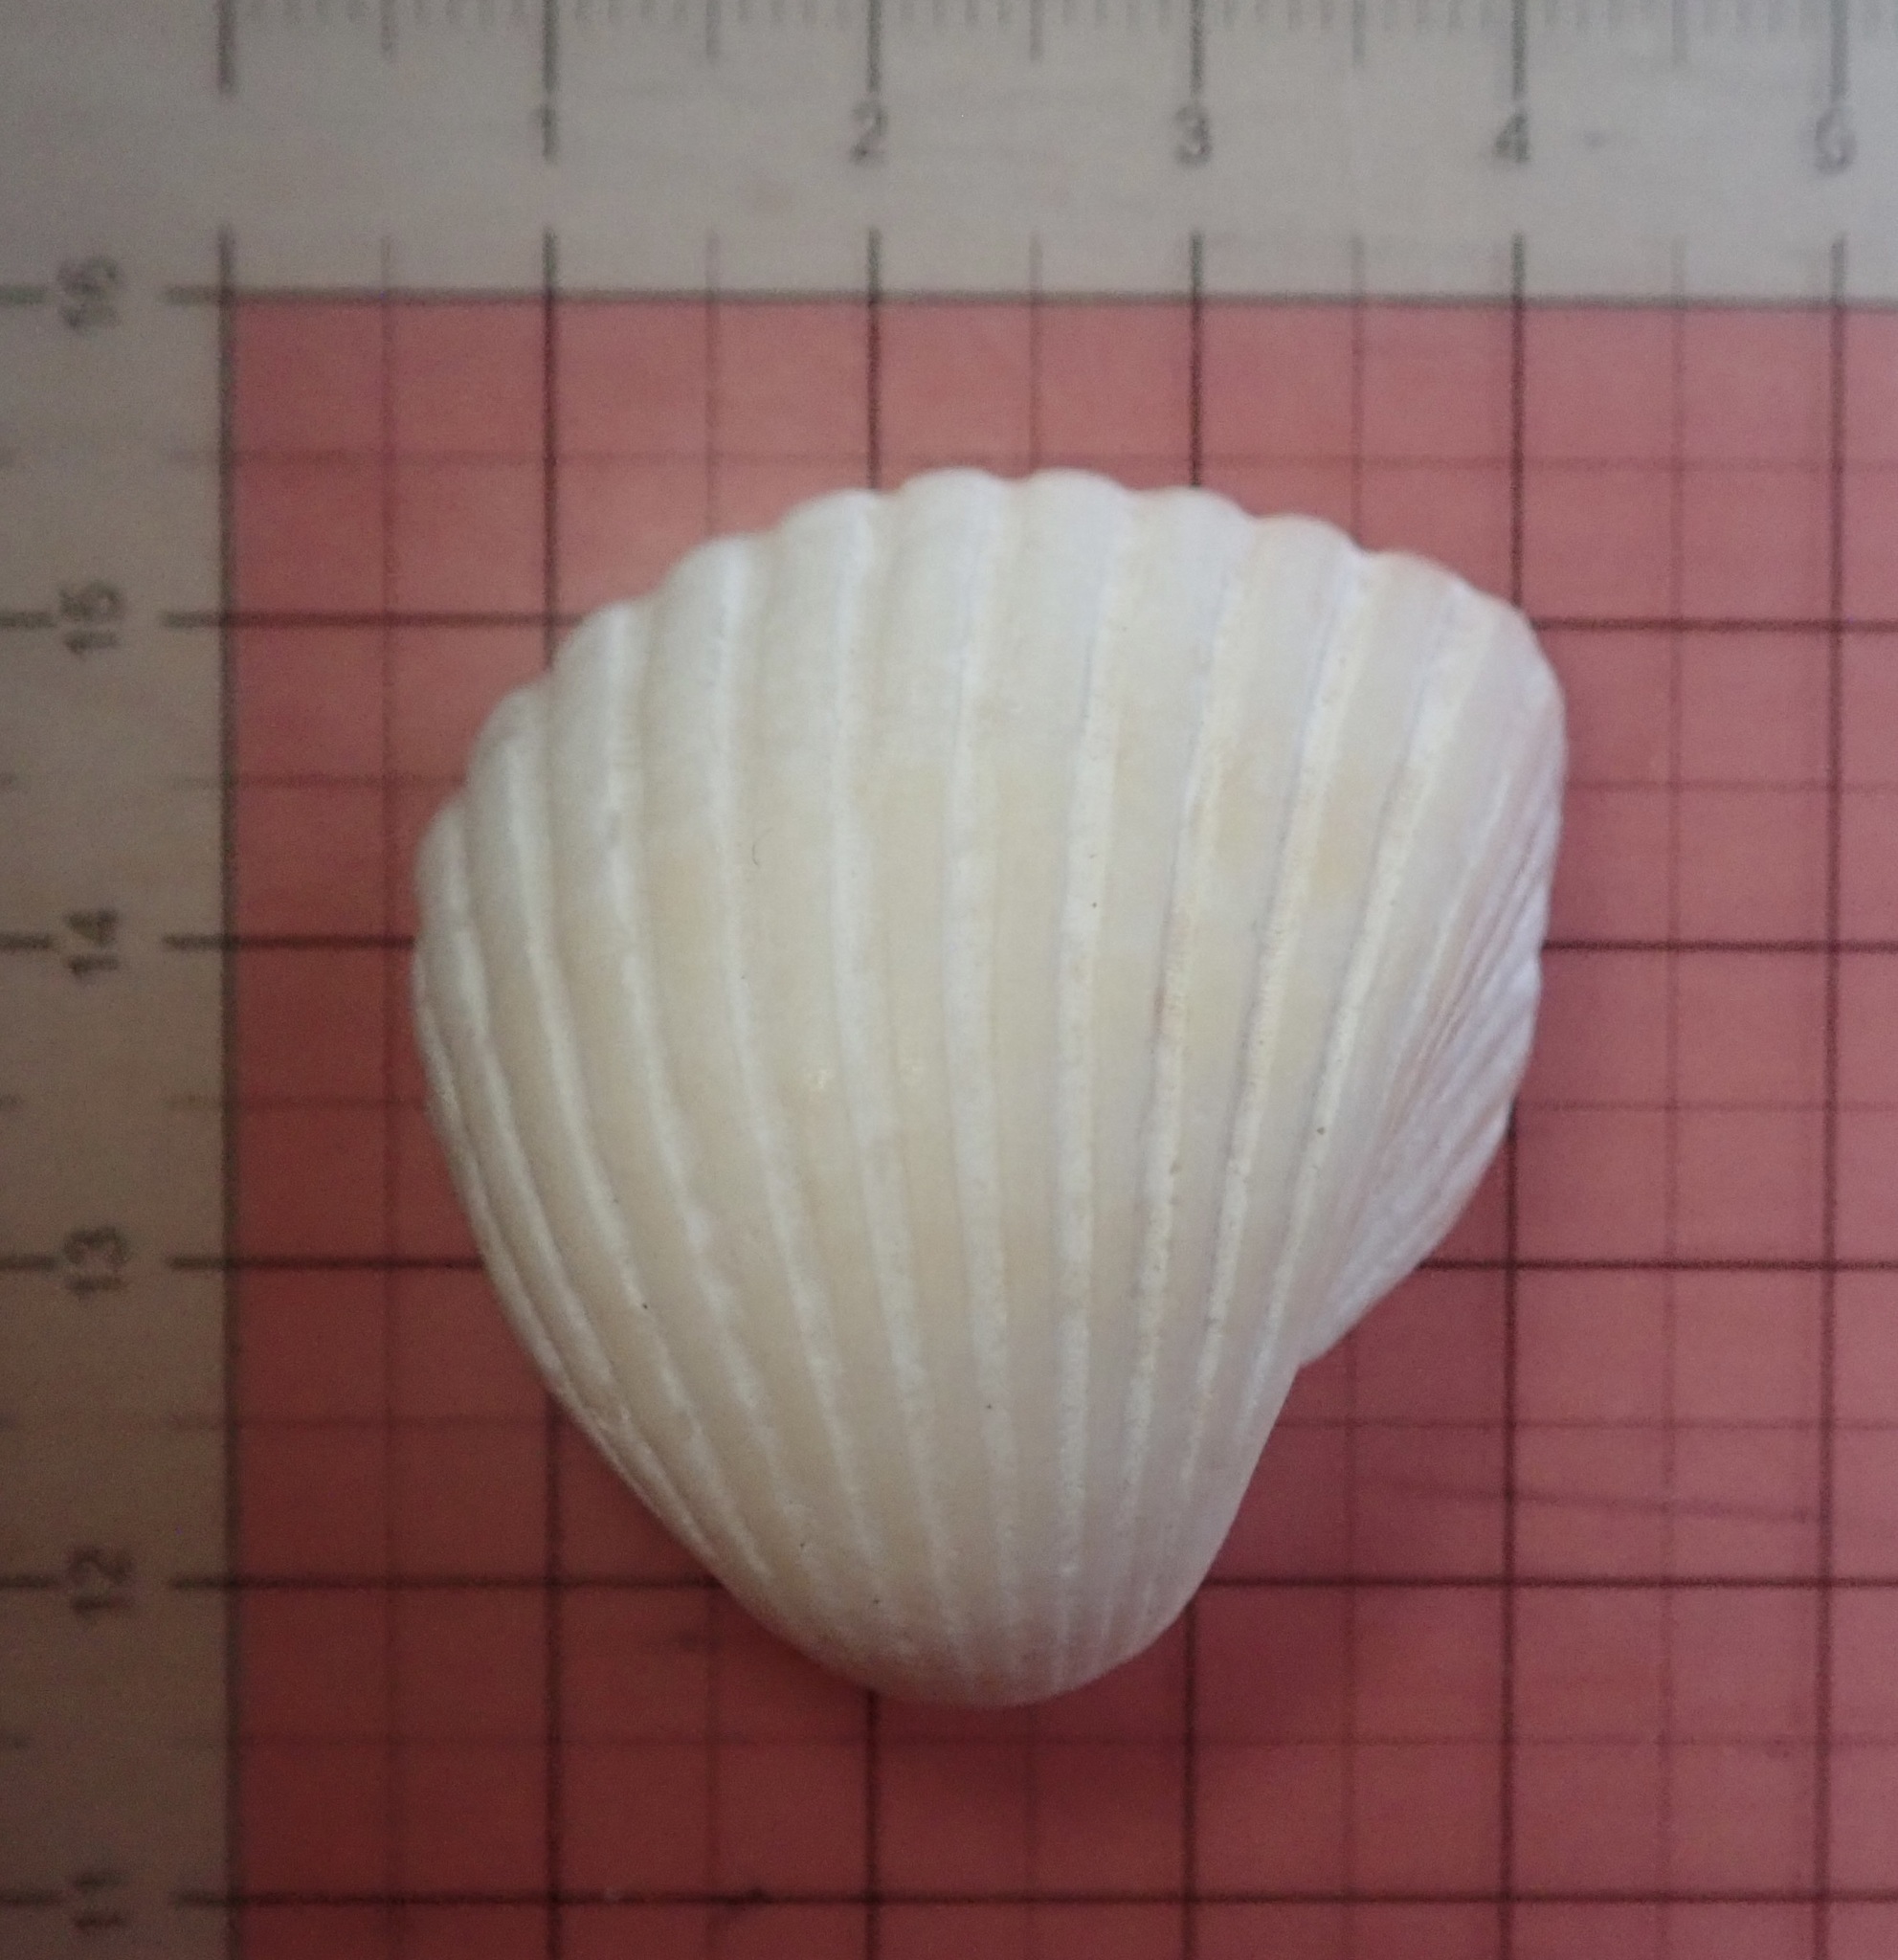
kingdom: Animalia
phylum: Mollusca
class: Bivalvia
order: Cardiida
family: Cardiidae
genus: Americardia
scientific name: Americardia biangulata
